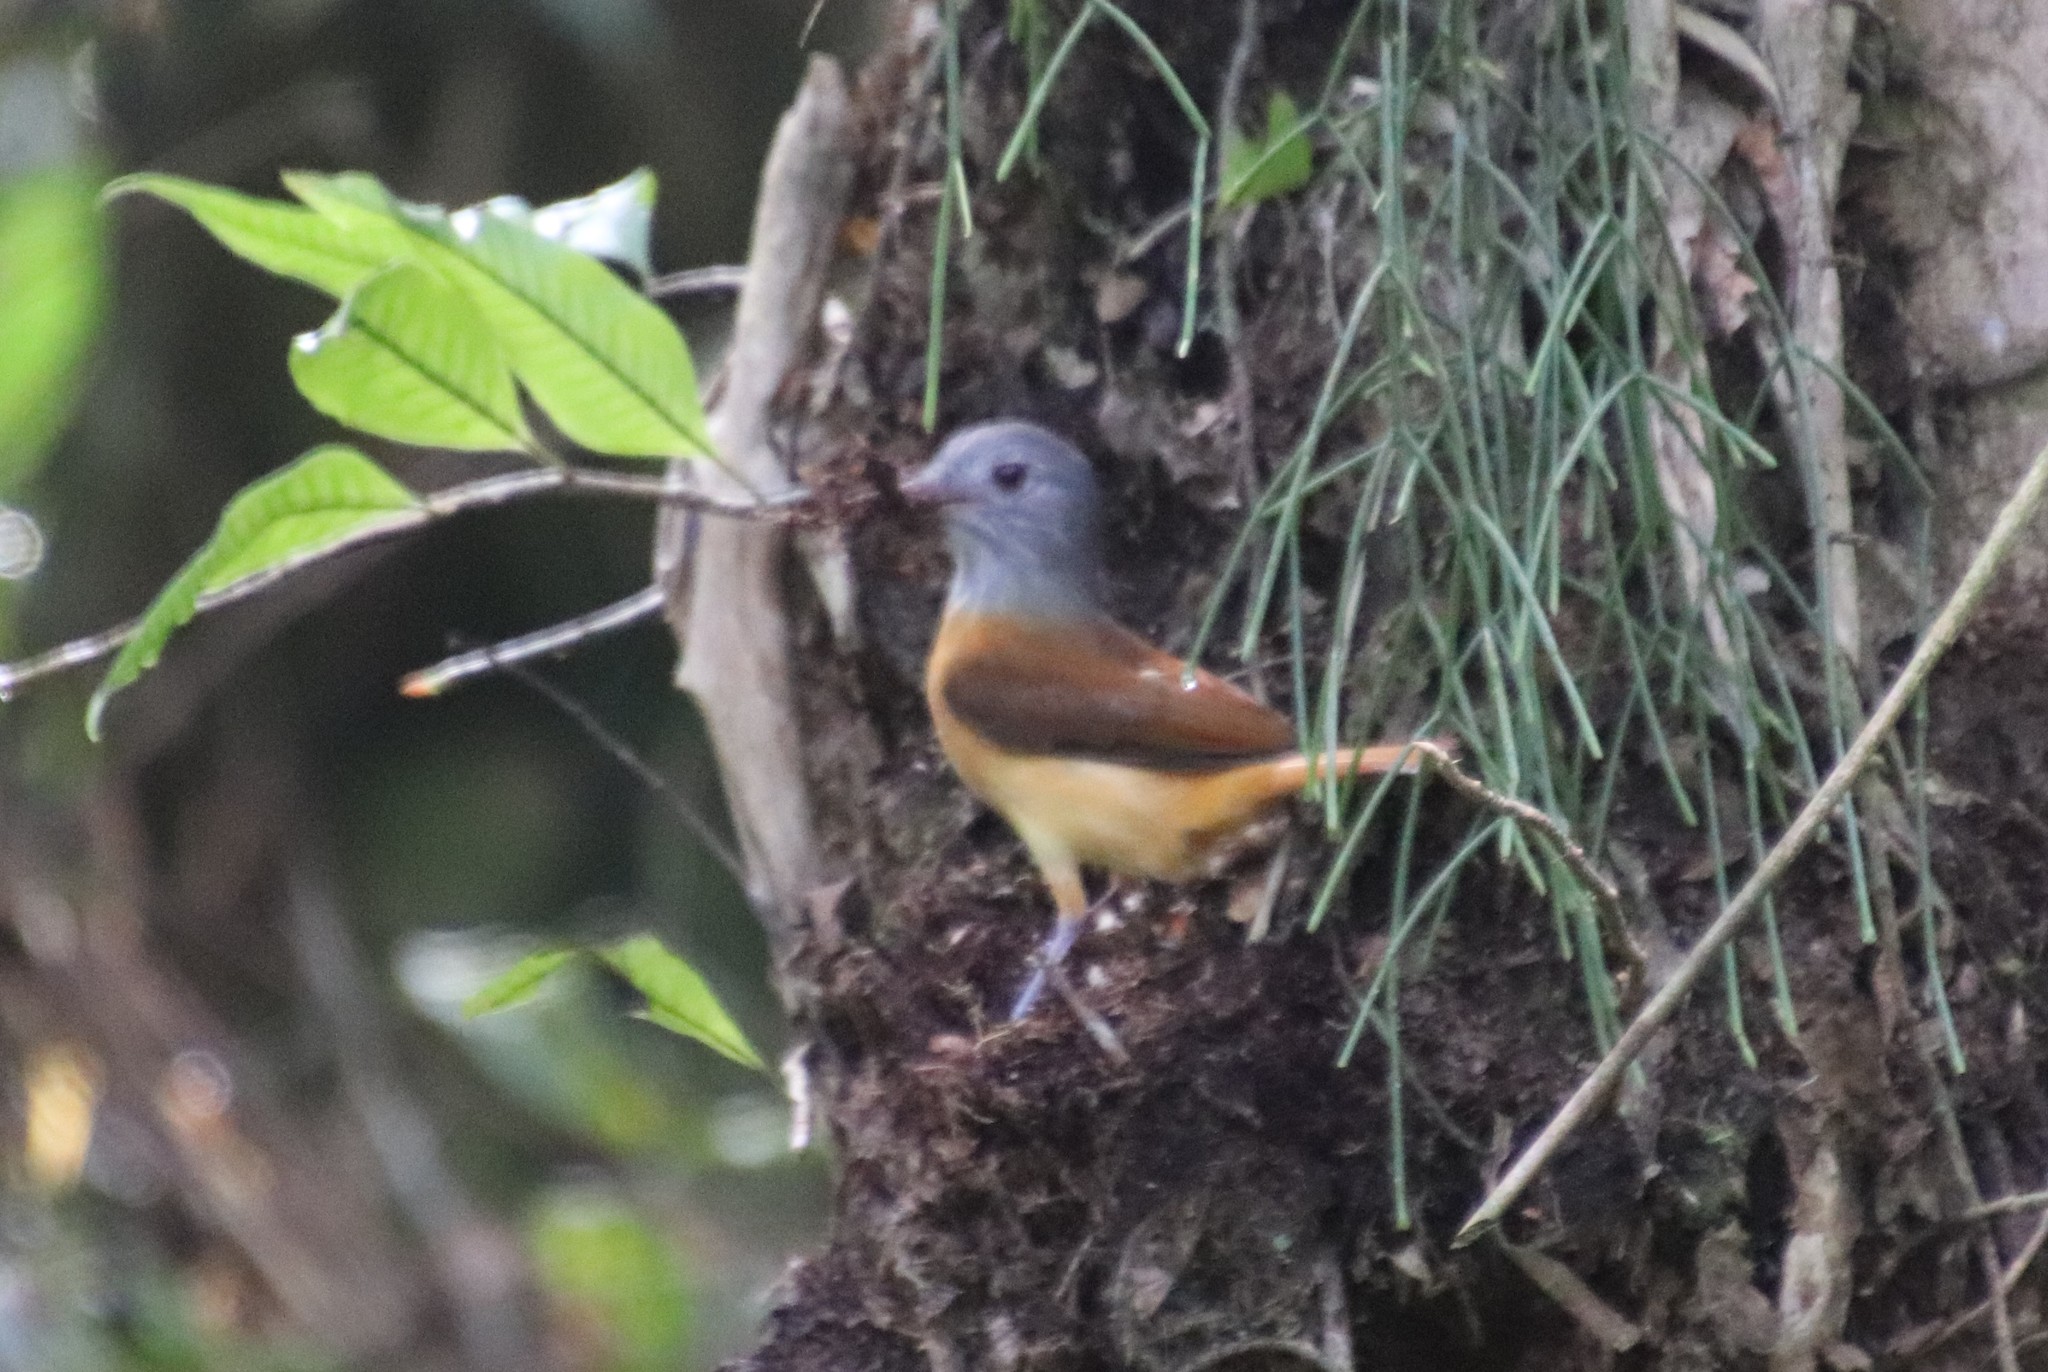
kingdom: Animalia
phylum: Chordata
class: Aves
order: Passeriformes
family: Tyrannidae
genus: Attila
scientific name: Attila rufus
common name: Grey-hooded attila
